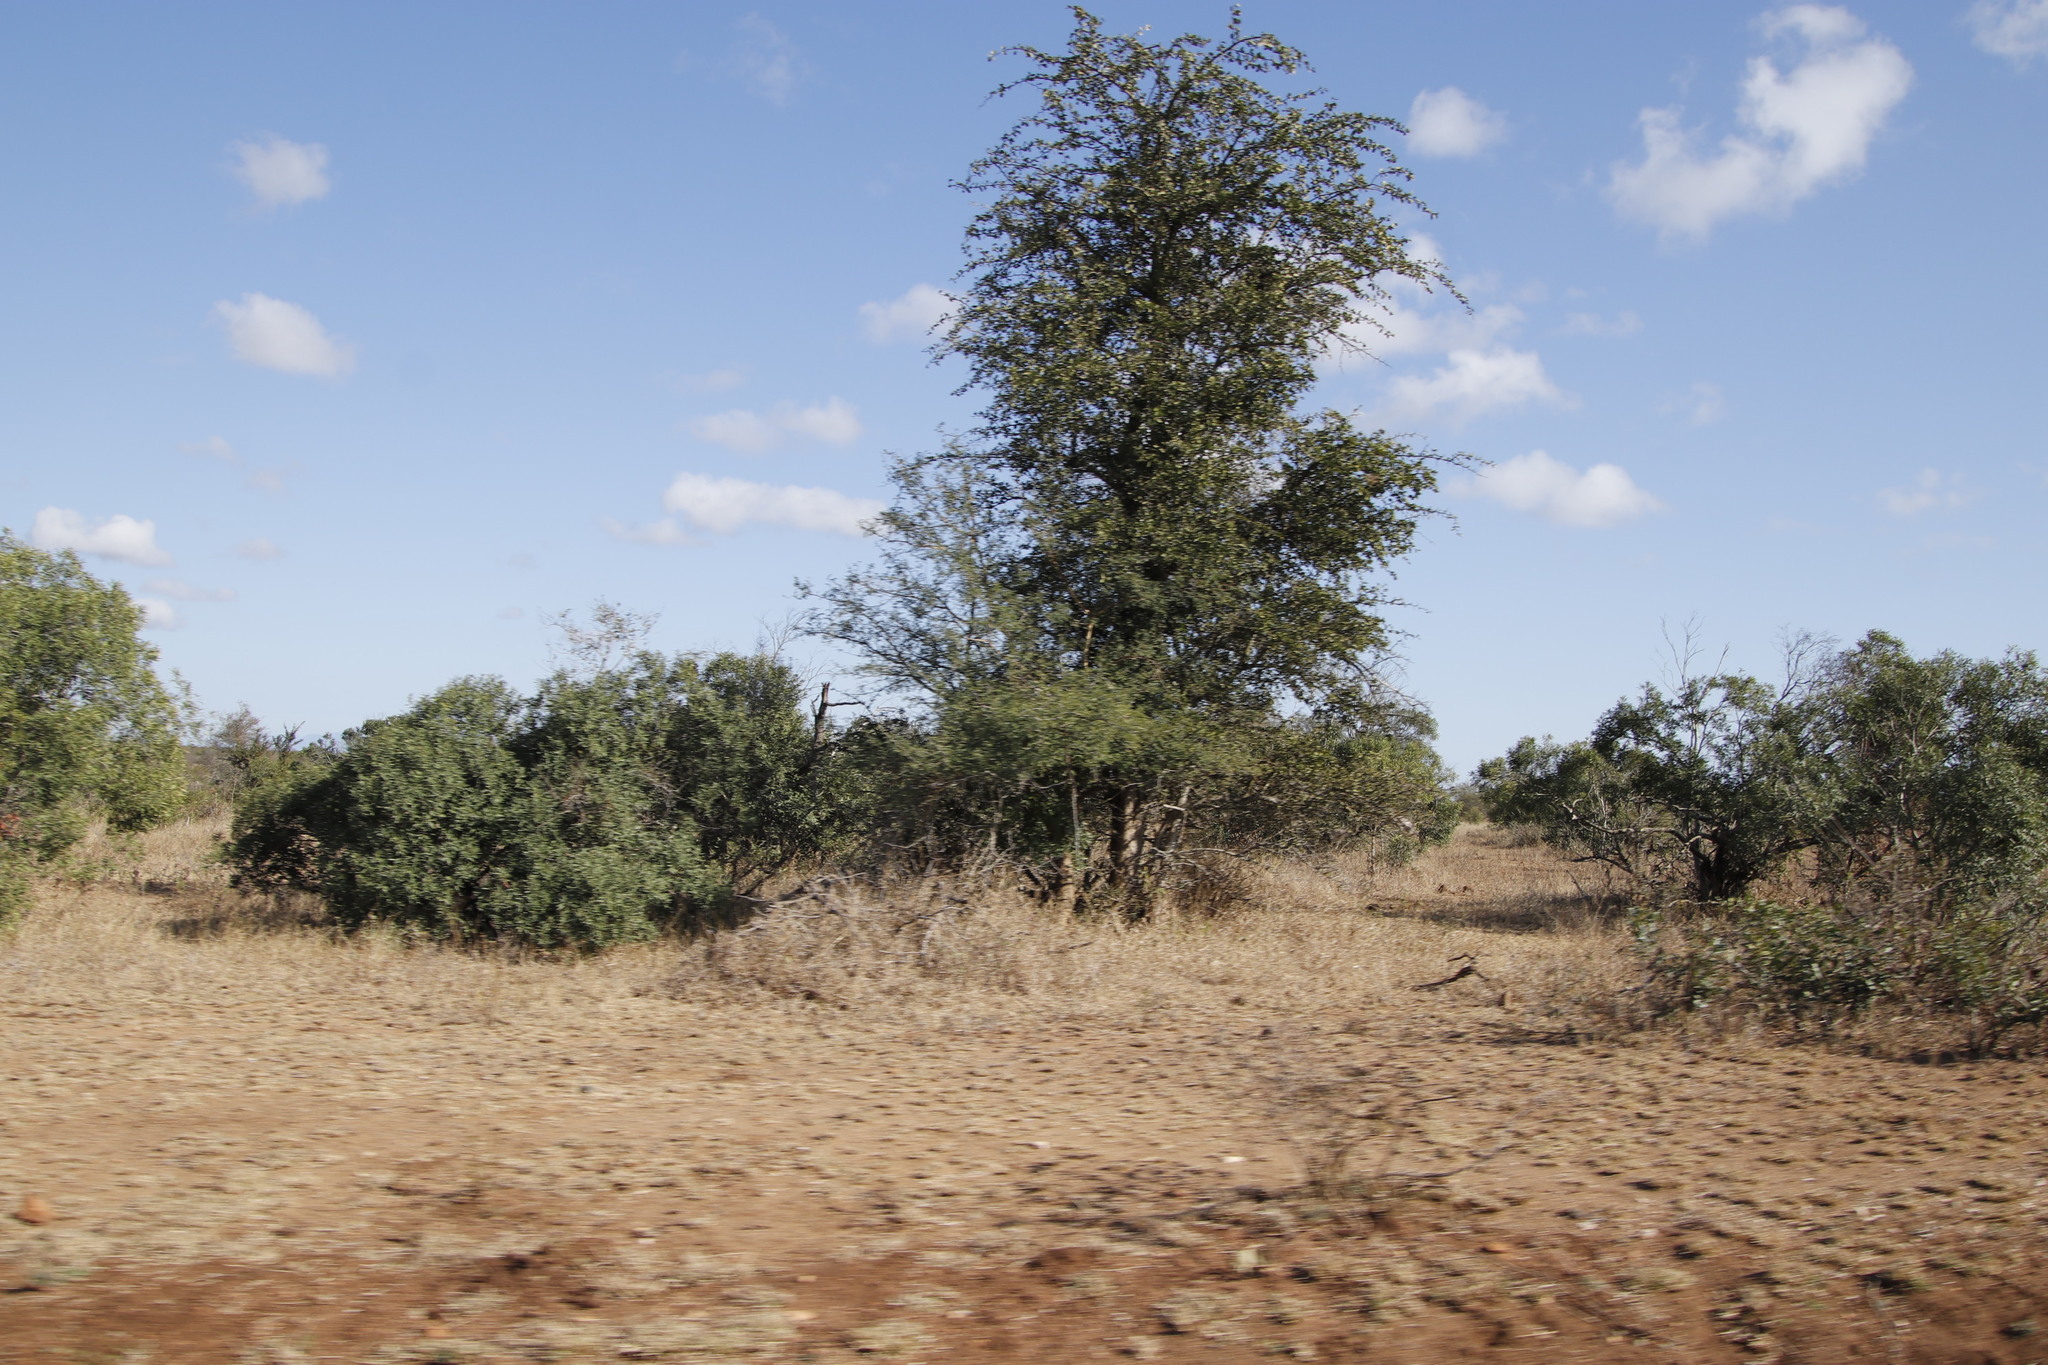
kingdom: Plantae
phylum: Tracheophyta
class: Magnoliopsida
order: Zygophyllales
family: Zygophyllaceae
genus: Balanites
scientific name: Balanites maughamii
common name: Torchwood
